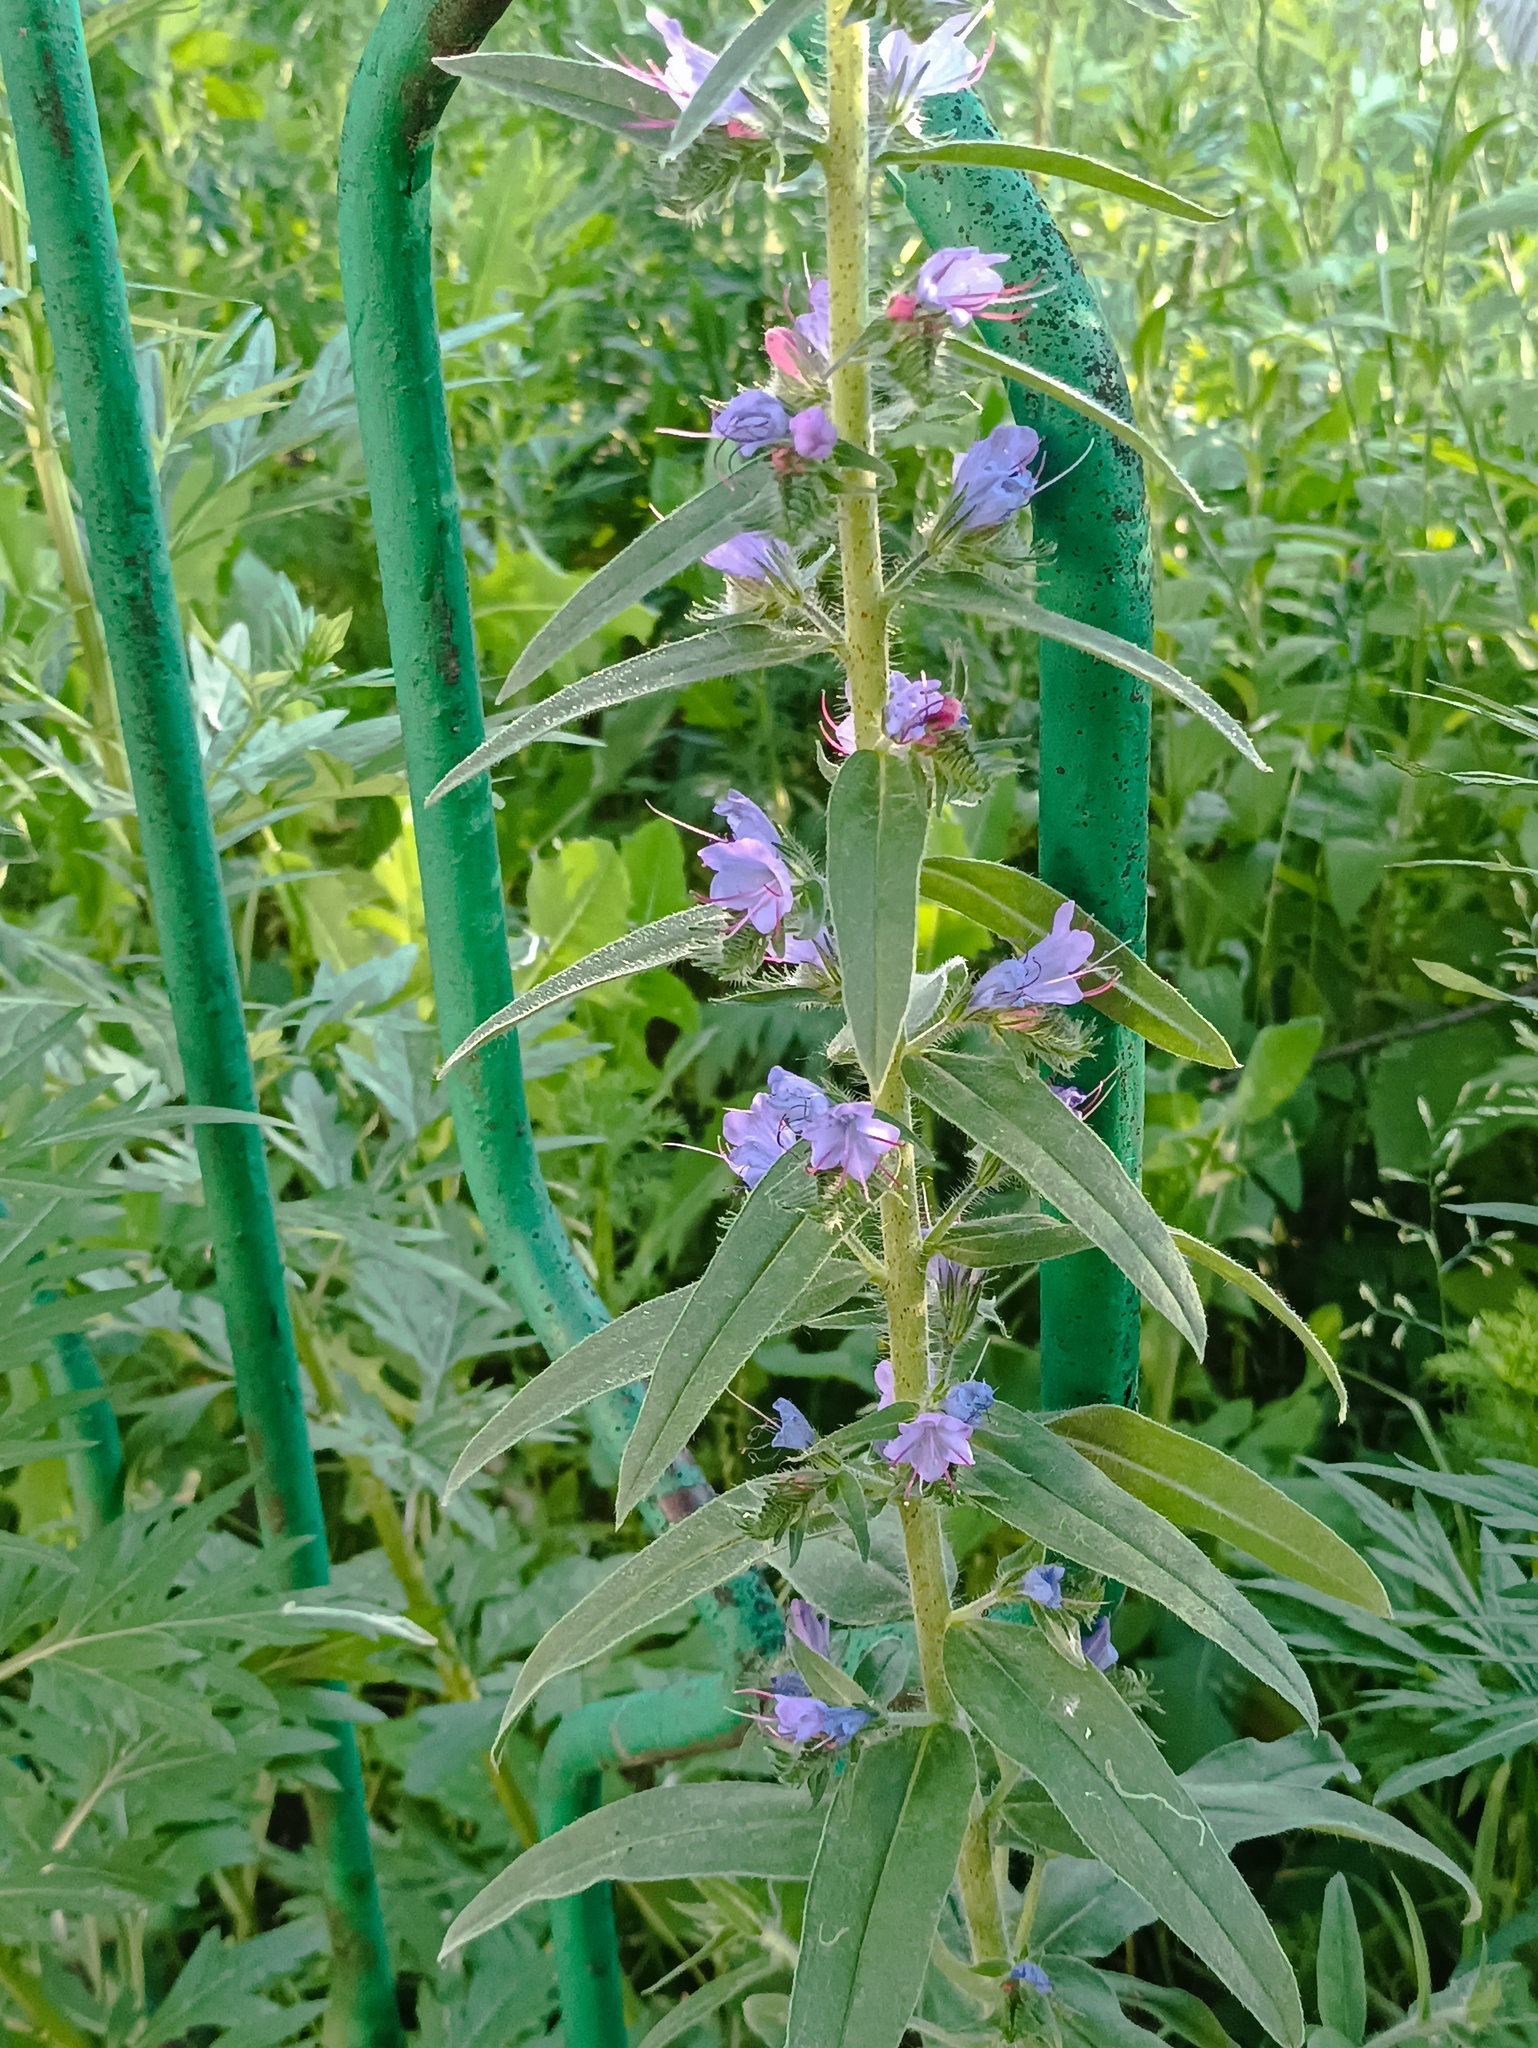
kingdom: Plantae
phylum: Tracheophyta
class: Magnoliopsida
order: Boraginales
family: Boraginaceae
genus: Echium
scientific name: Echium vulgare
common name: Common viper's bugloss
